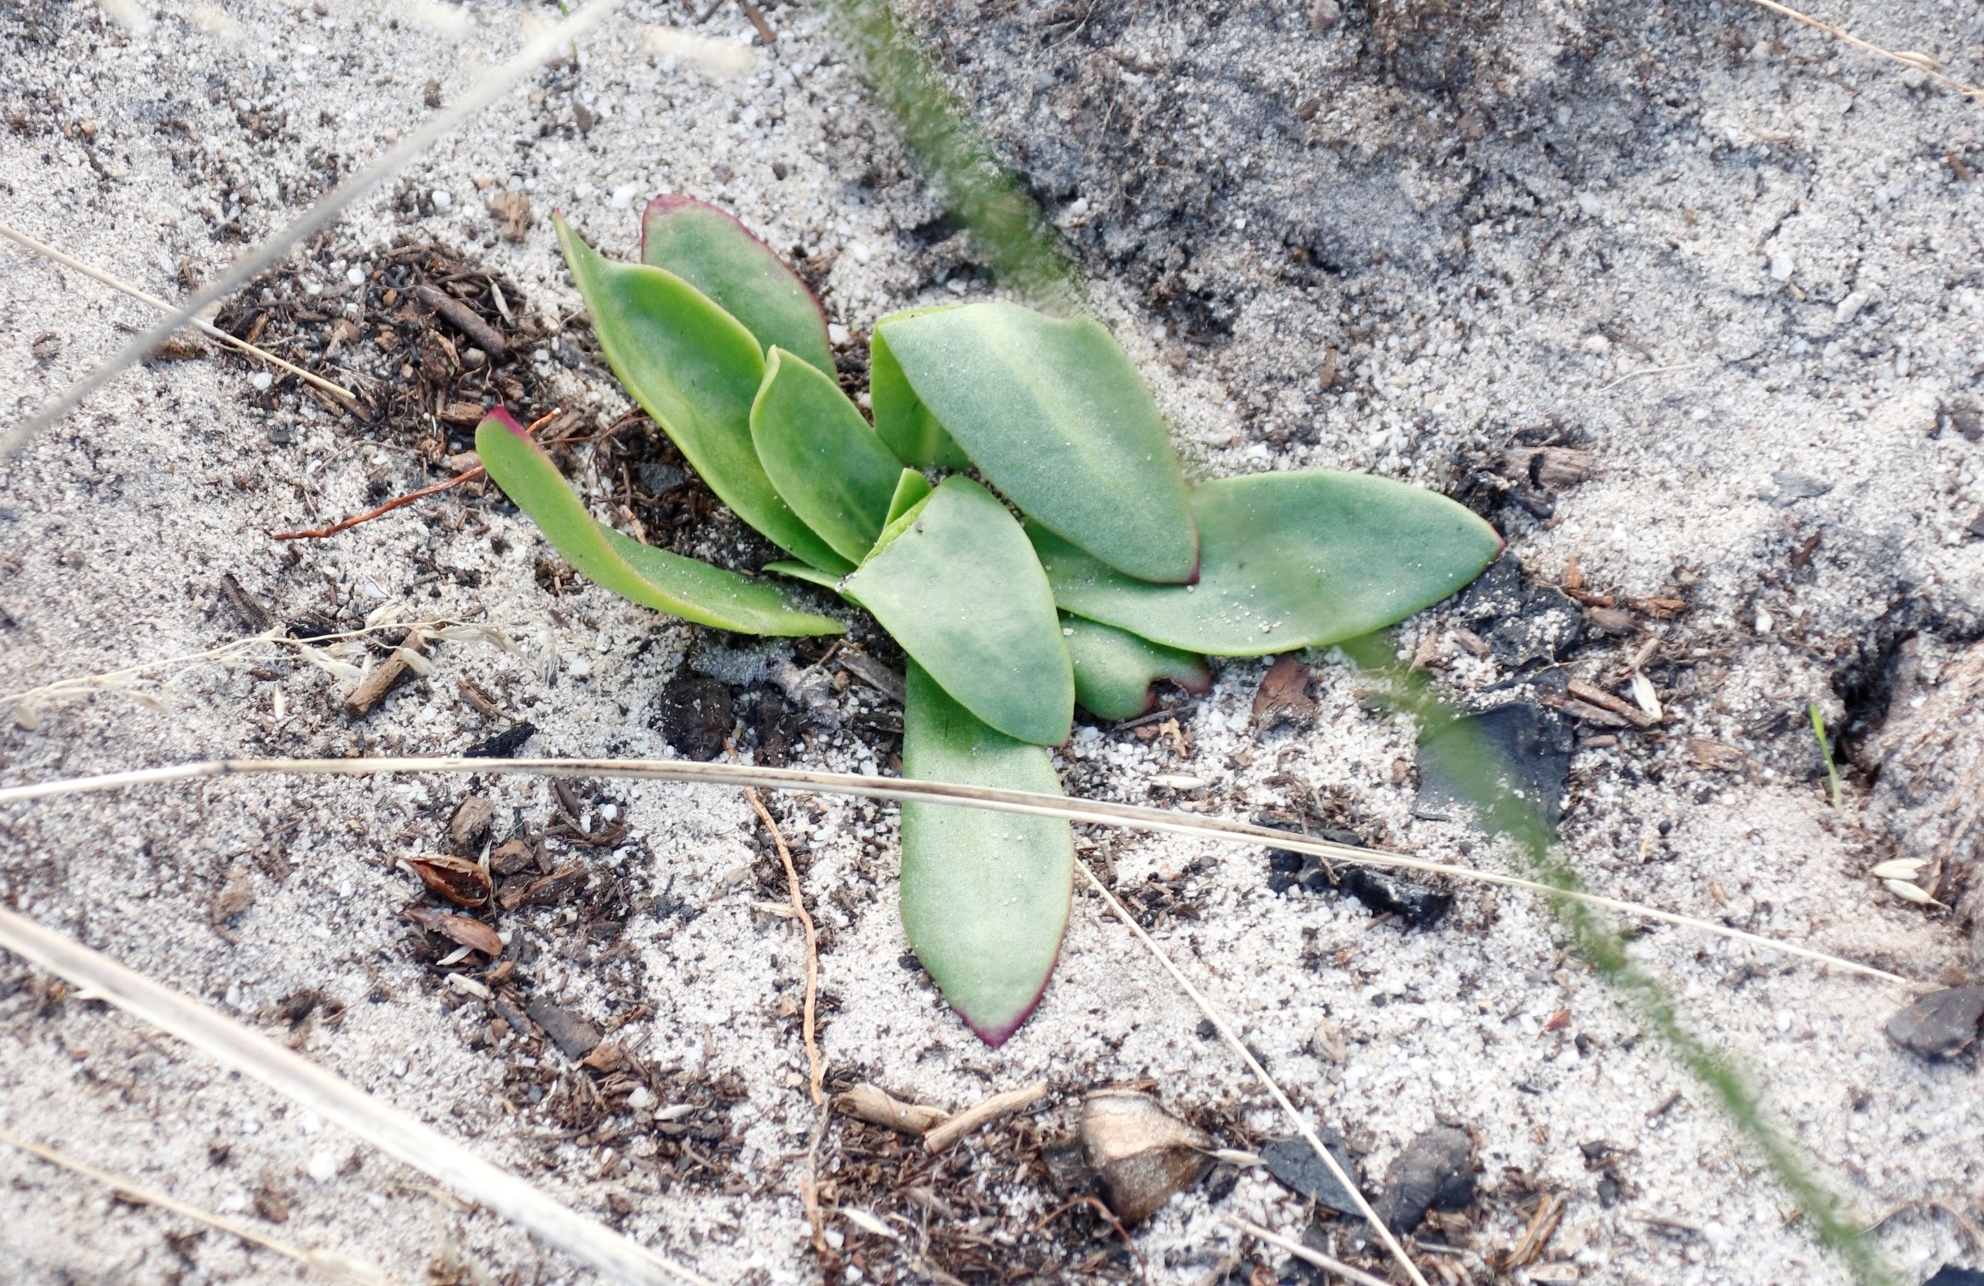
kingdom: Plantae
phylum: Tracheophyta
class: Magnoliopsida
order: Caryophyllales
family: Aizoaceae
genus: Skiatophytum
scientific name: Skiatophytum tripolium
